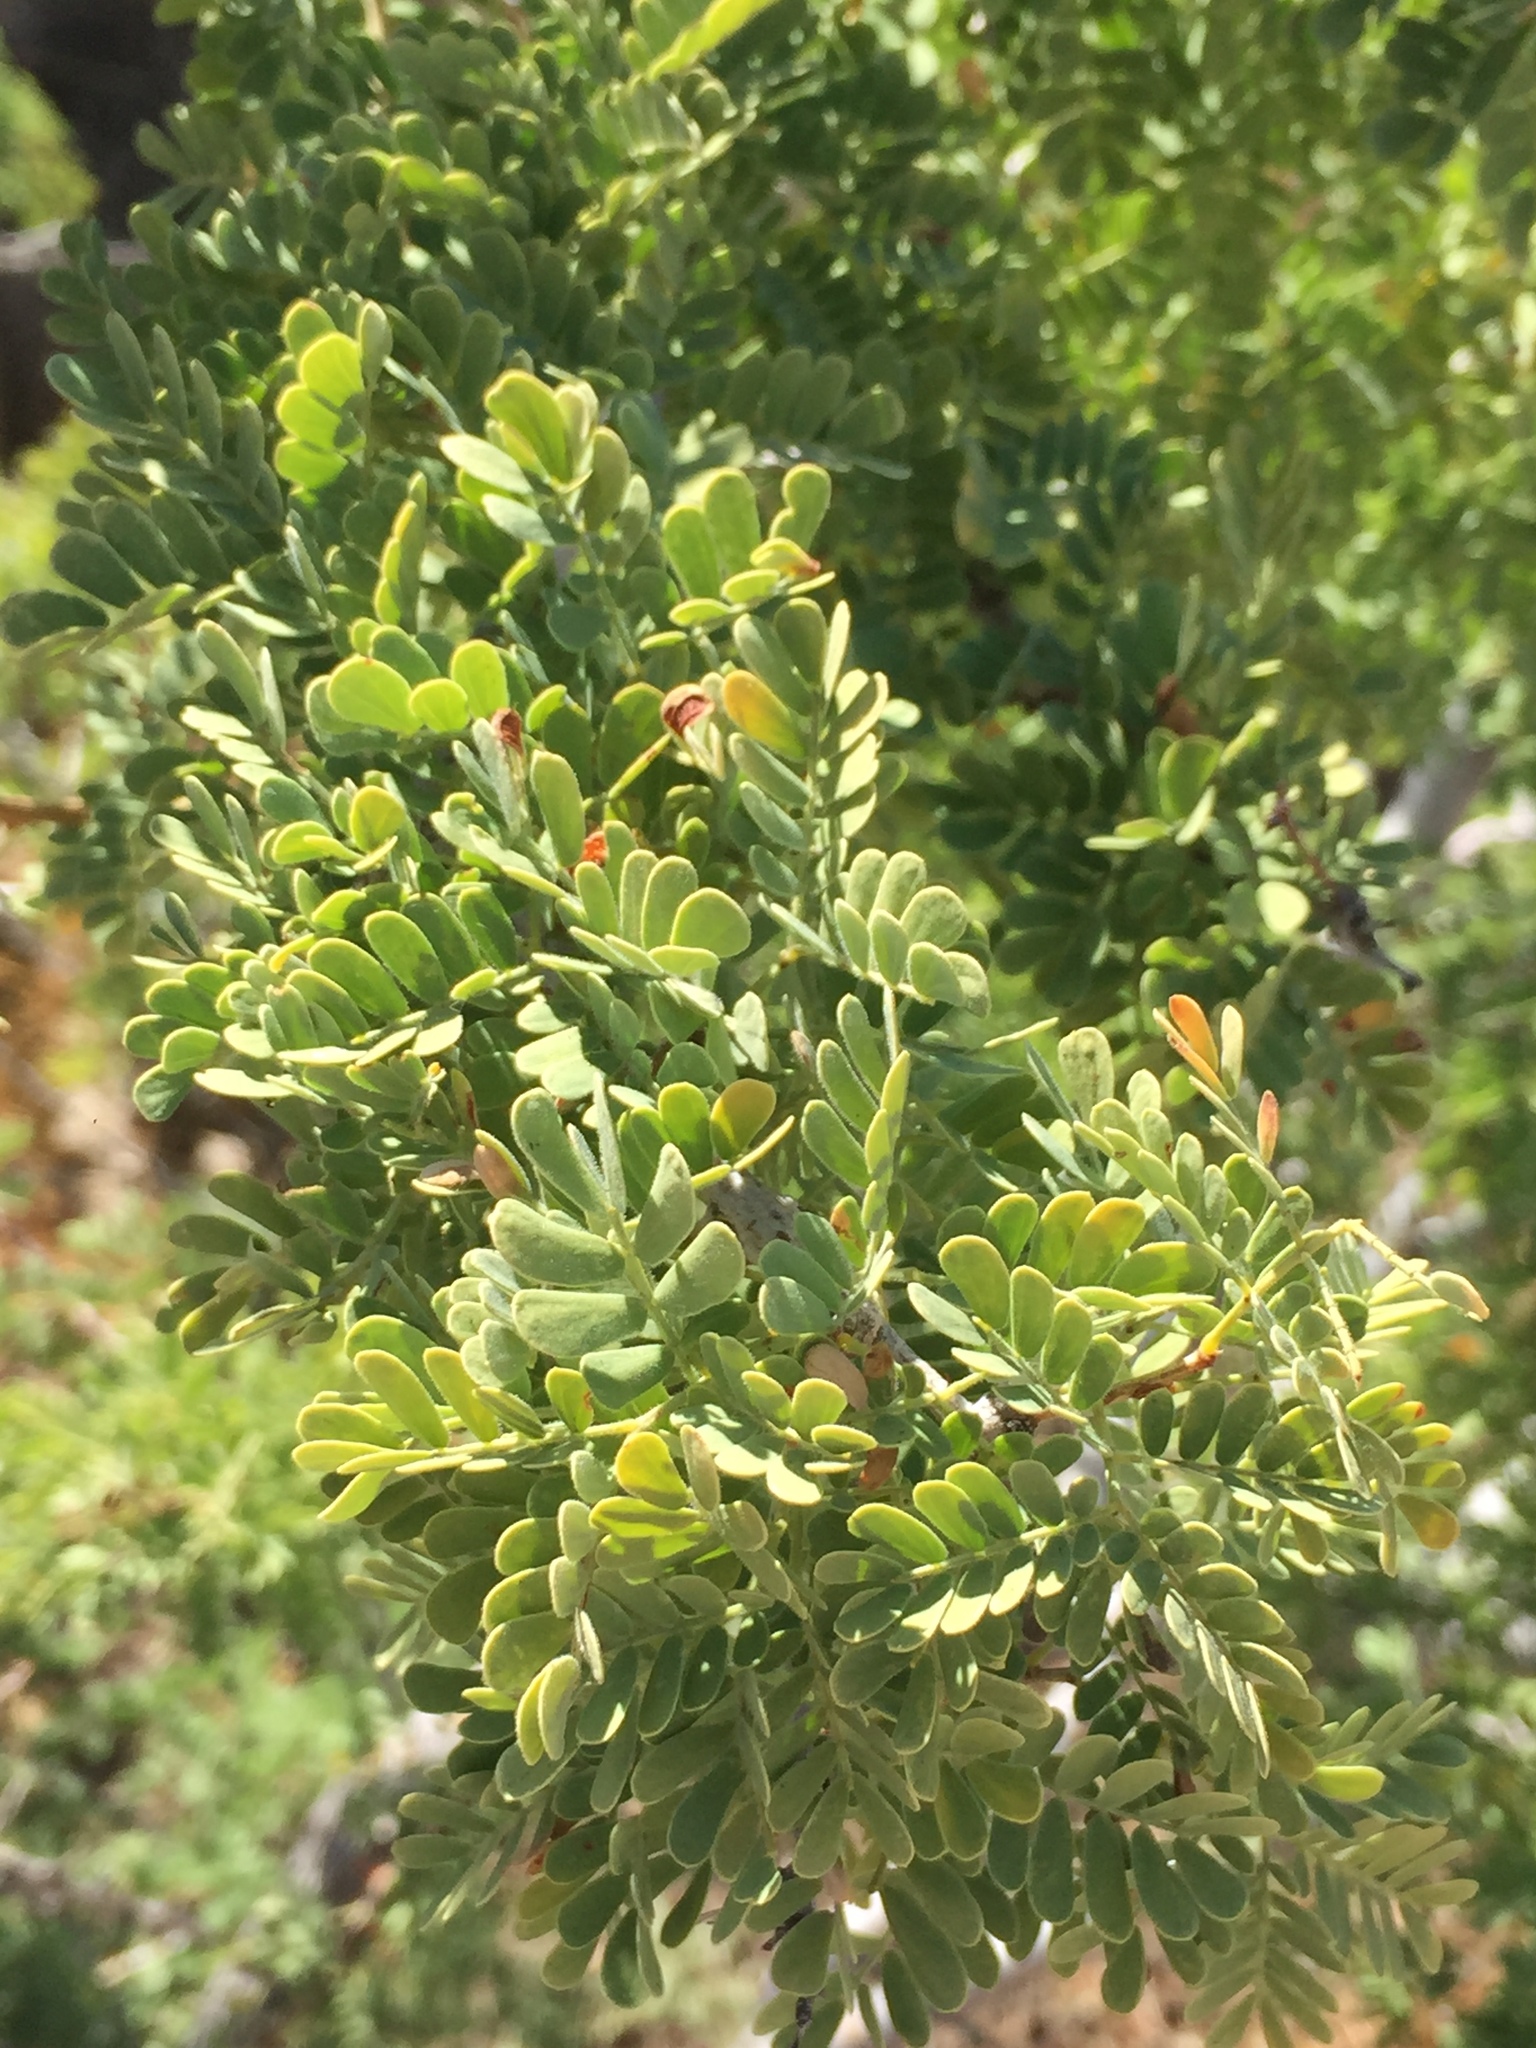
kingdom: Plantae
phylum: Tracheophyta
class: Magnoliopsida
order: Fabales
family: Fabaceae
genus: Senegalia
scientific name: Senegalia greggii
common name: Texas-mimosa
